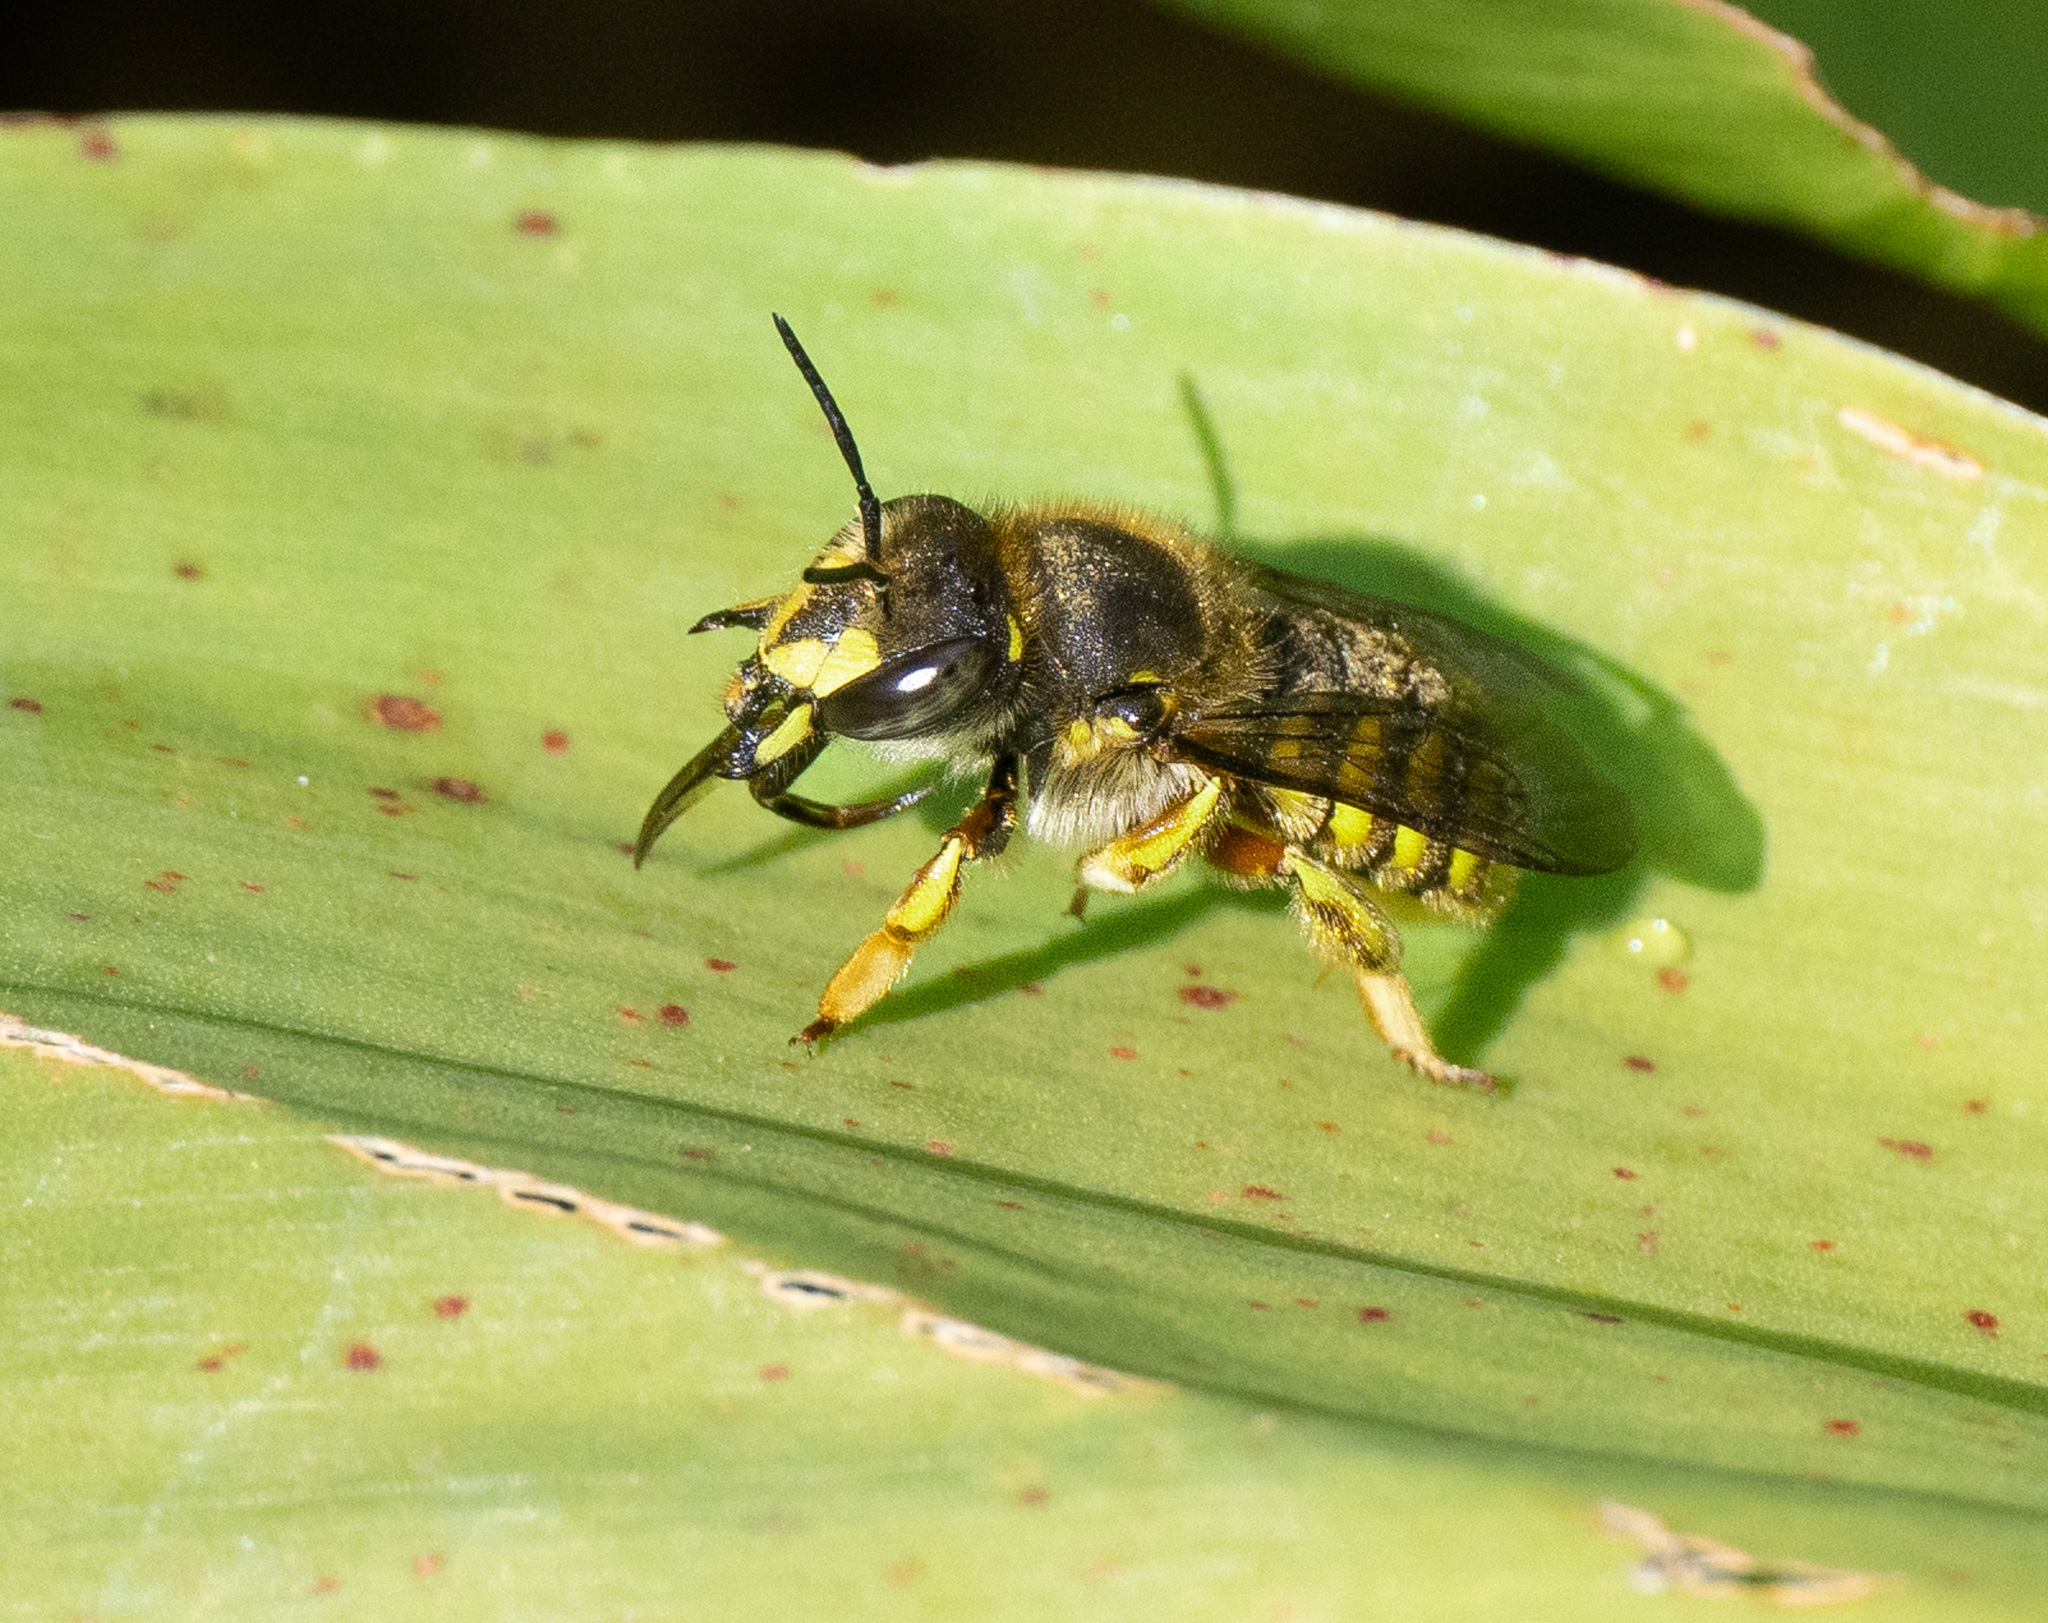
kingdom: Animalia
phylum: Arthropoda
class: Insecta
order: Hymenoptera
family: Megachilidae
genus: Anthidium
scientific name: Anthidium manicatum
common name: Wool carder bee
